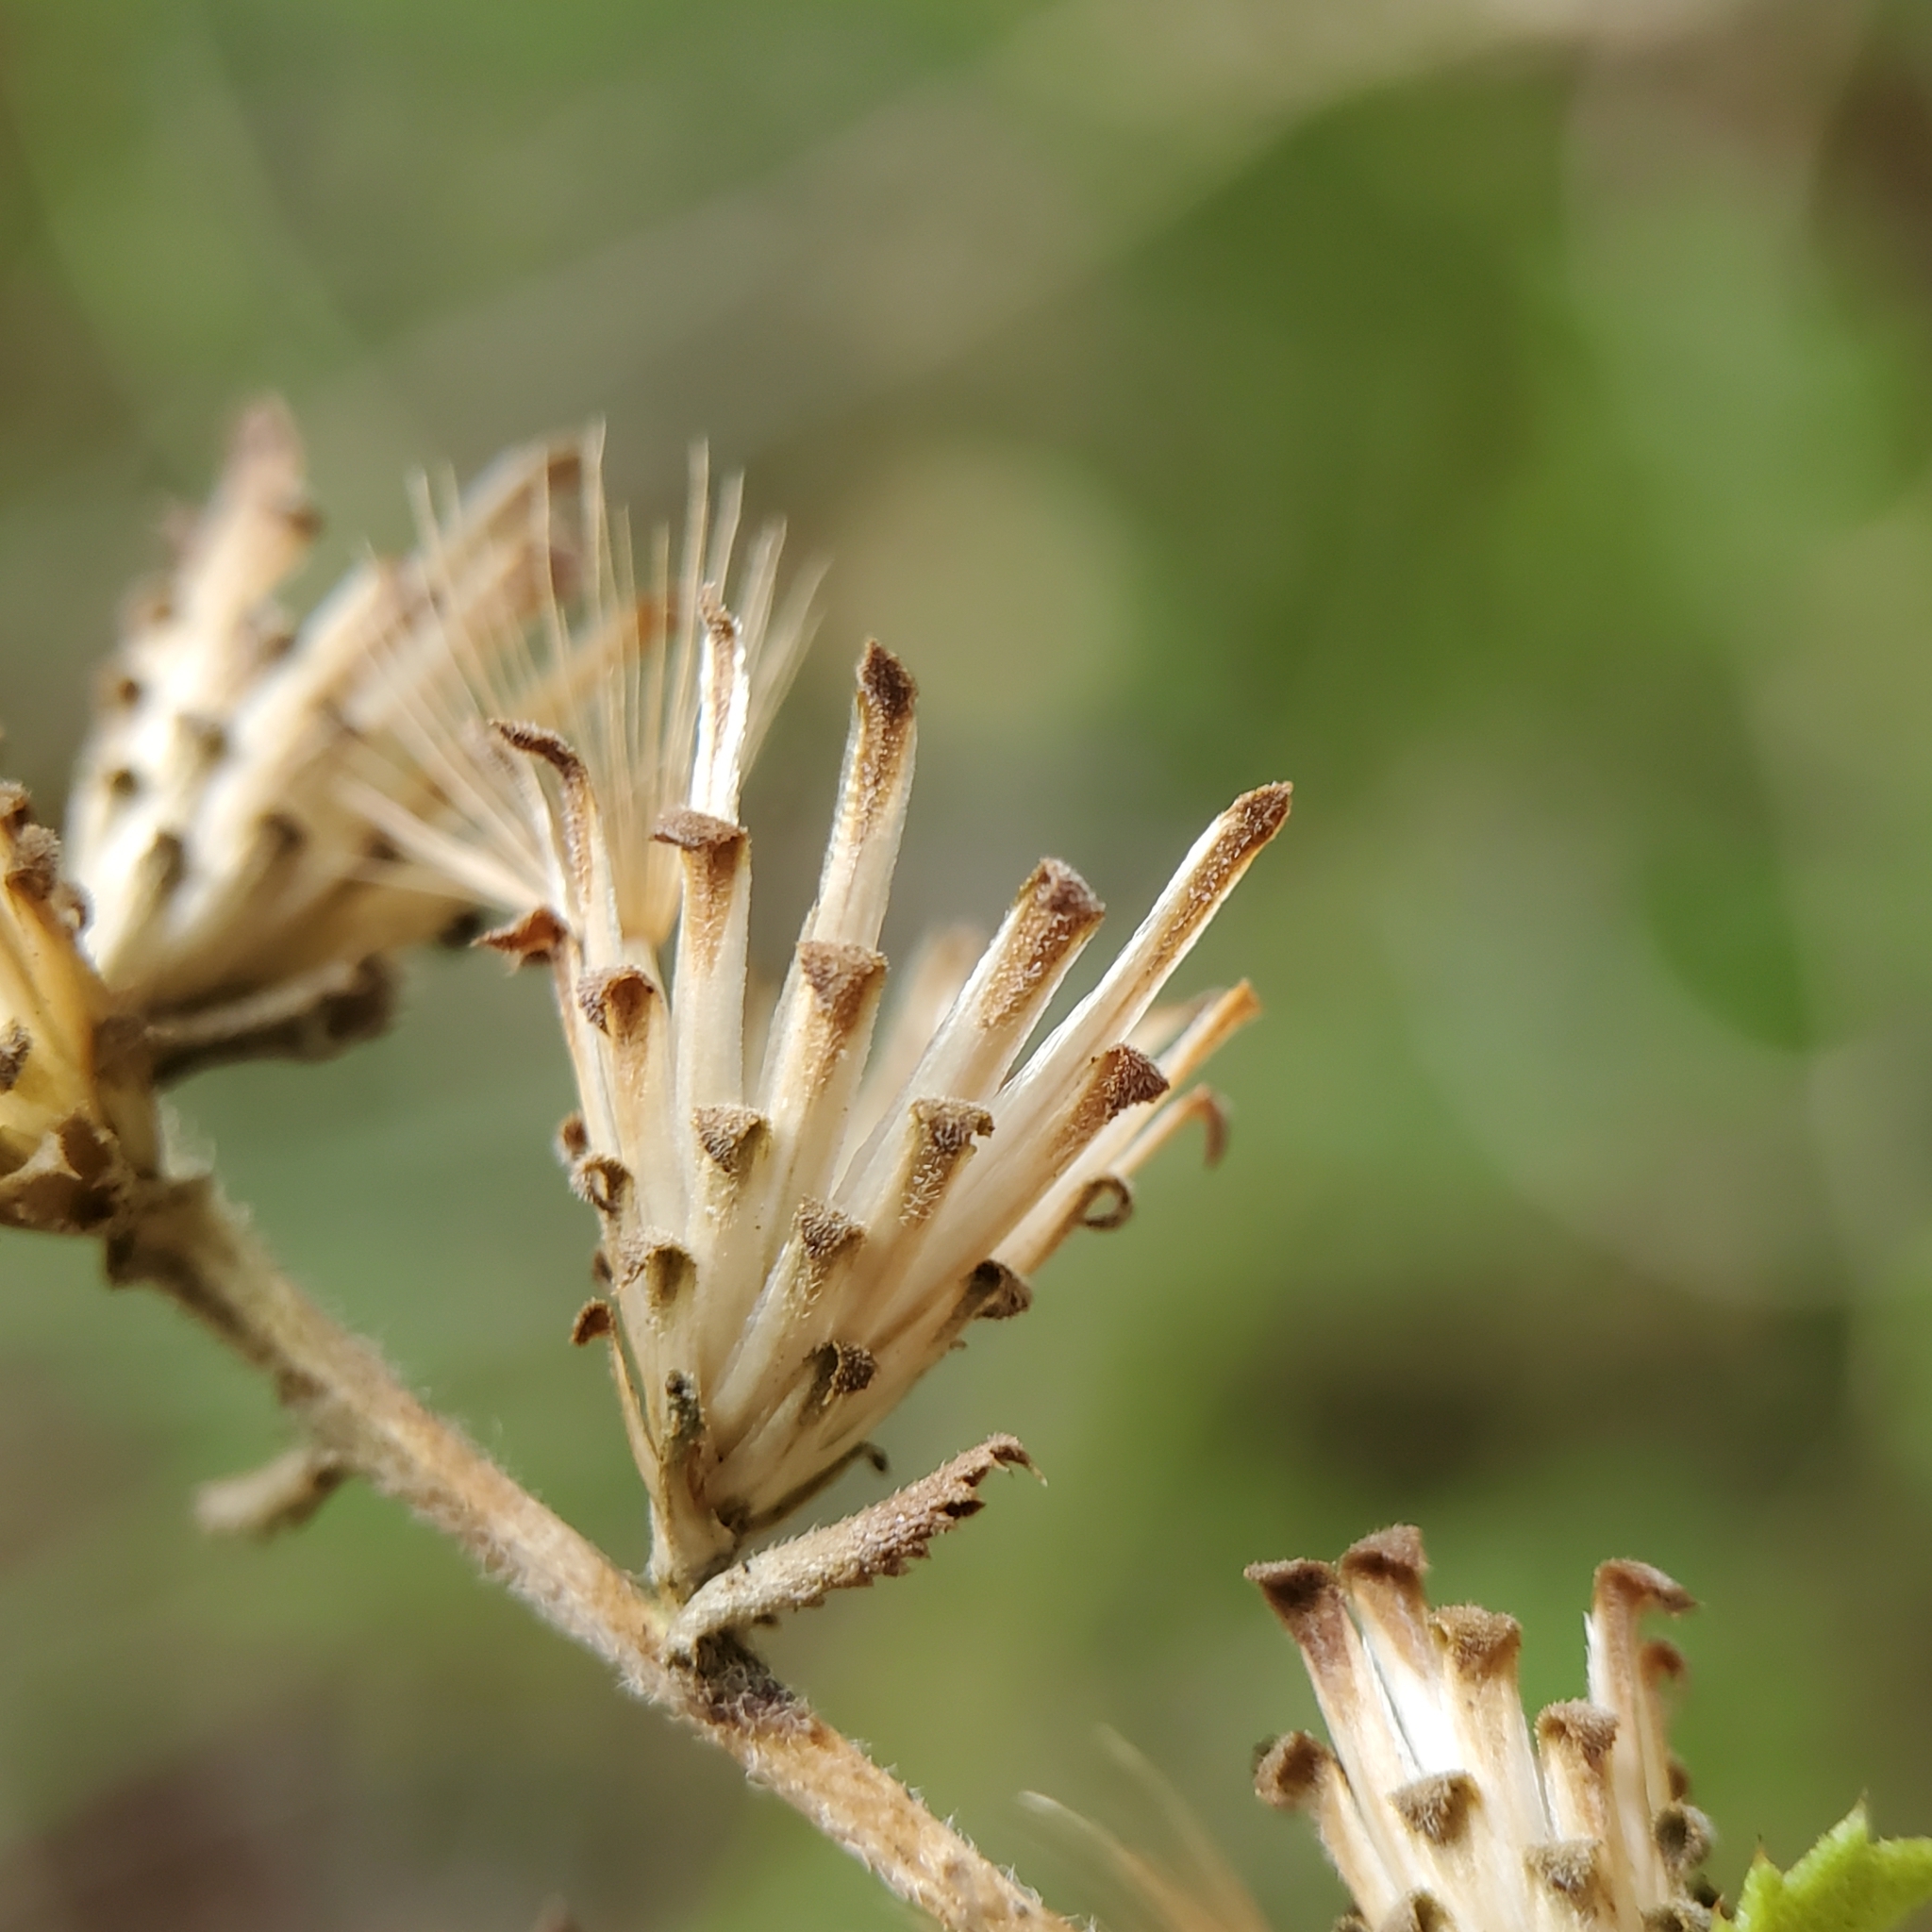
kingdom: Plantae
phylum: Tracheophyta
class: Magnoliopsida
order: Asterales
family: Asteraceae
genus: Hazardia
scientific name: Hazardia squarrosa
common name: Saw-tooth goldenbush
